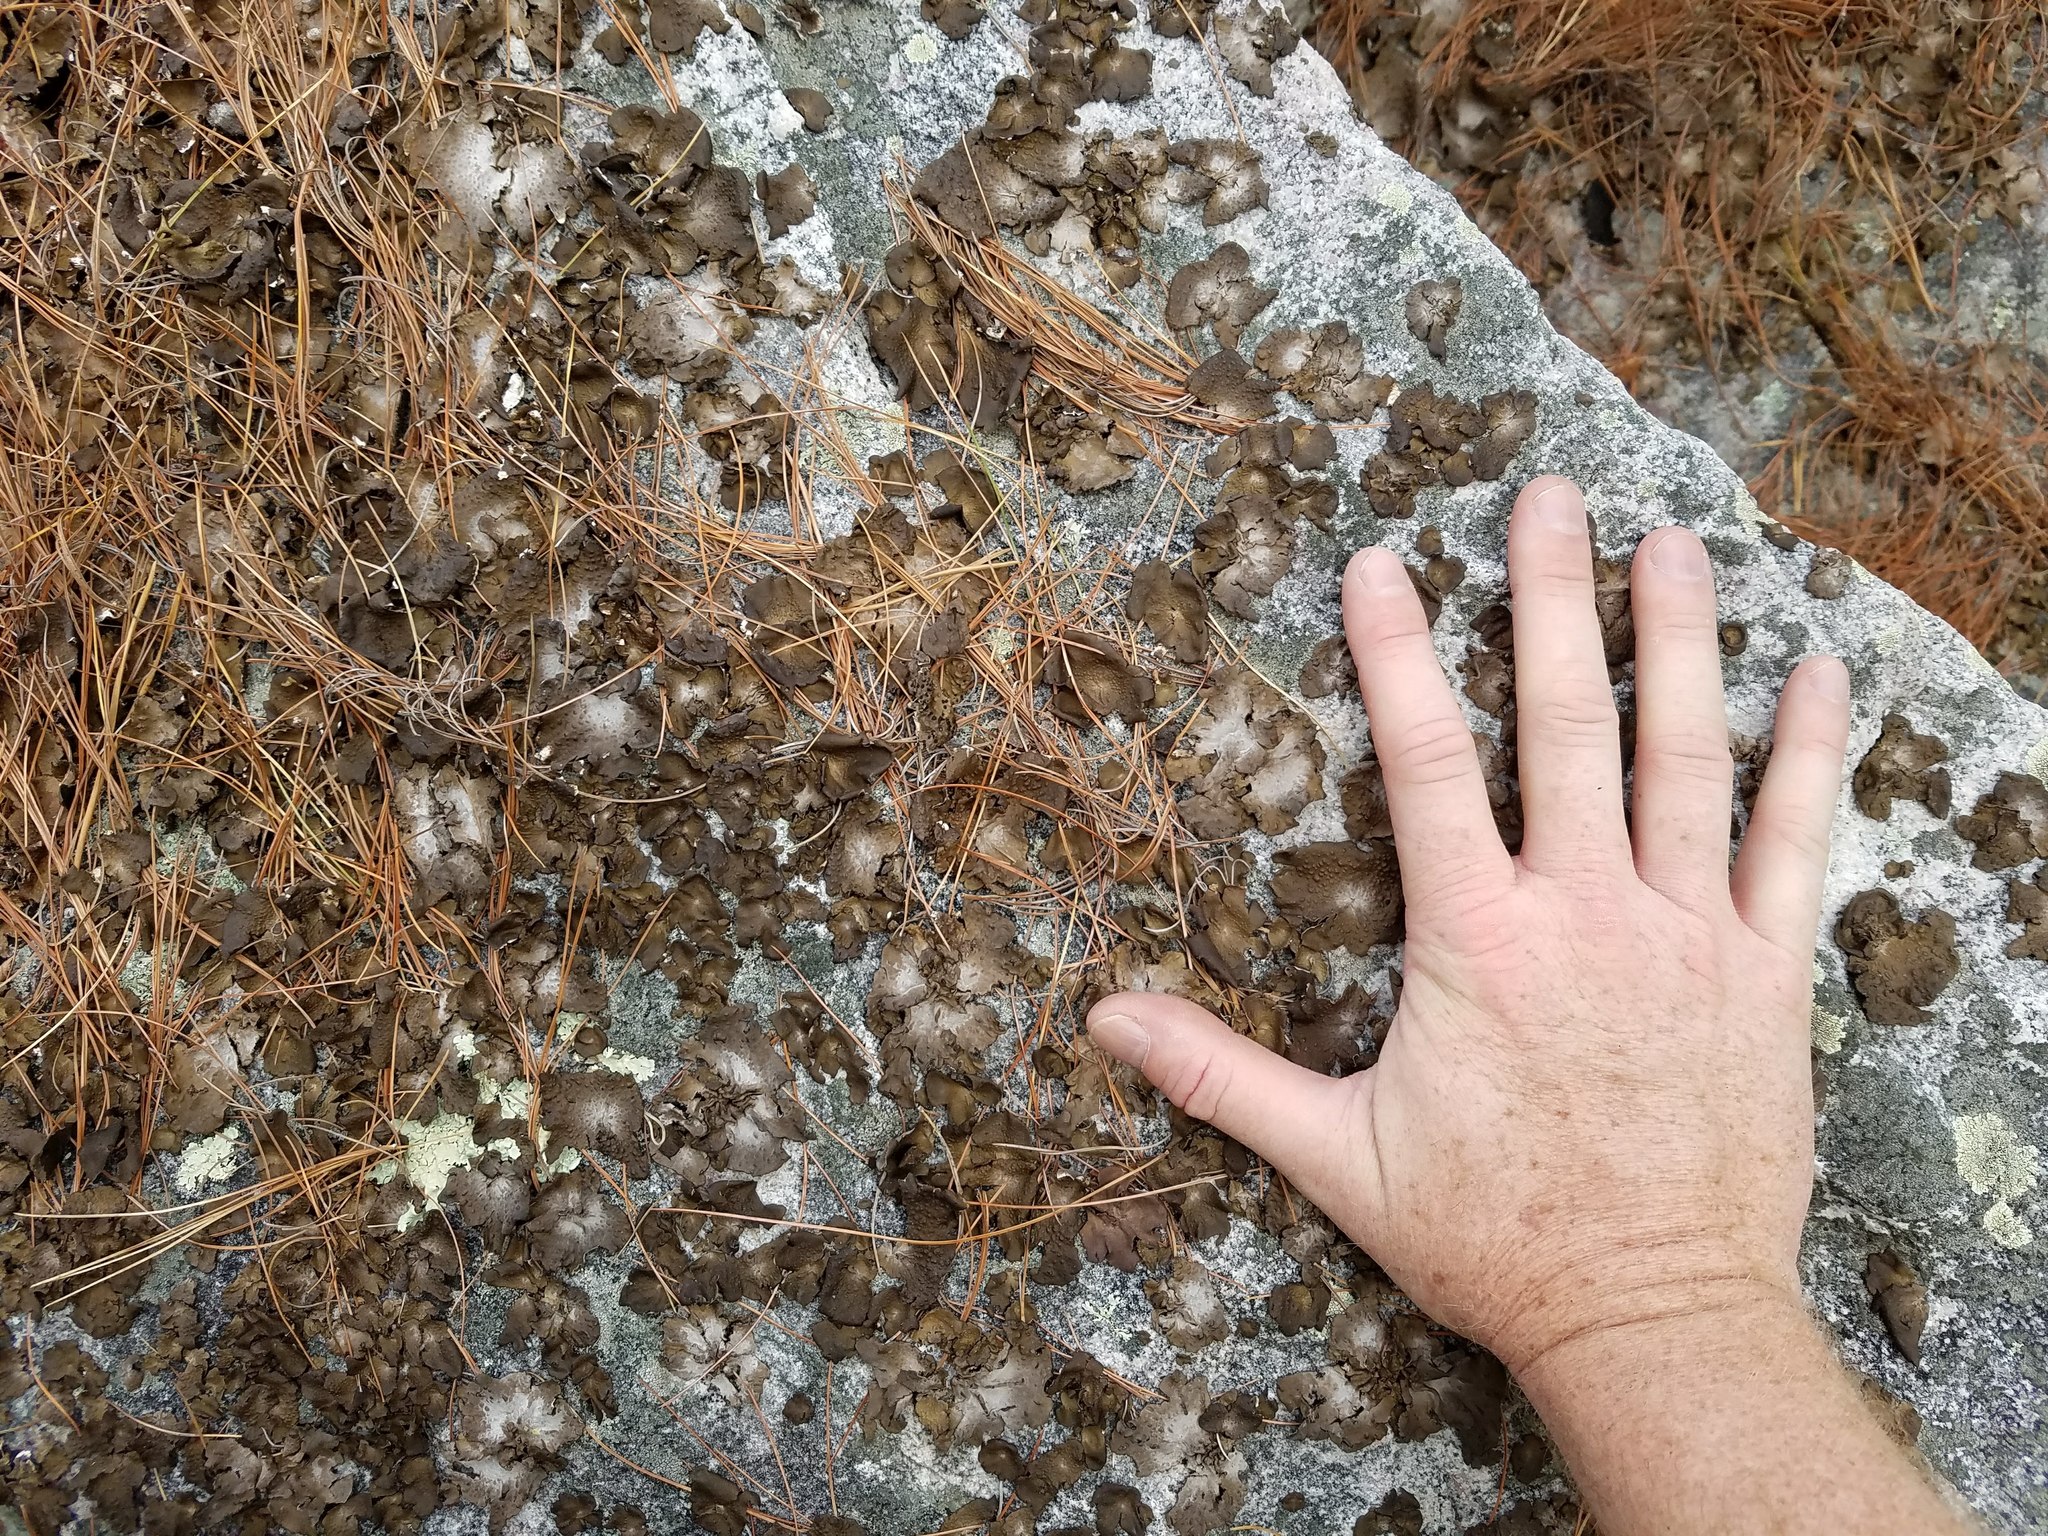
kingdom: Fungi
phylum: Ascomycota
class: Lecanoromycetes
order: Umbilicariales
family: Umbilicariaceae
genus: Lasallia
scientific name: Lasallia papulosa
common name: Common toadskin lichen
